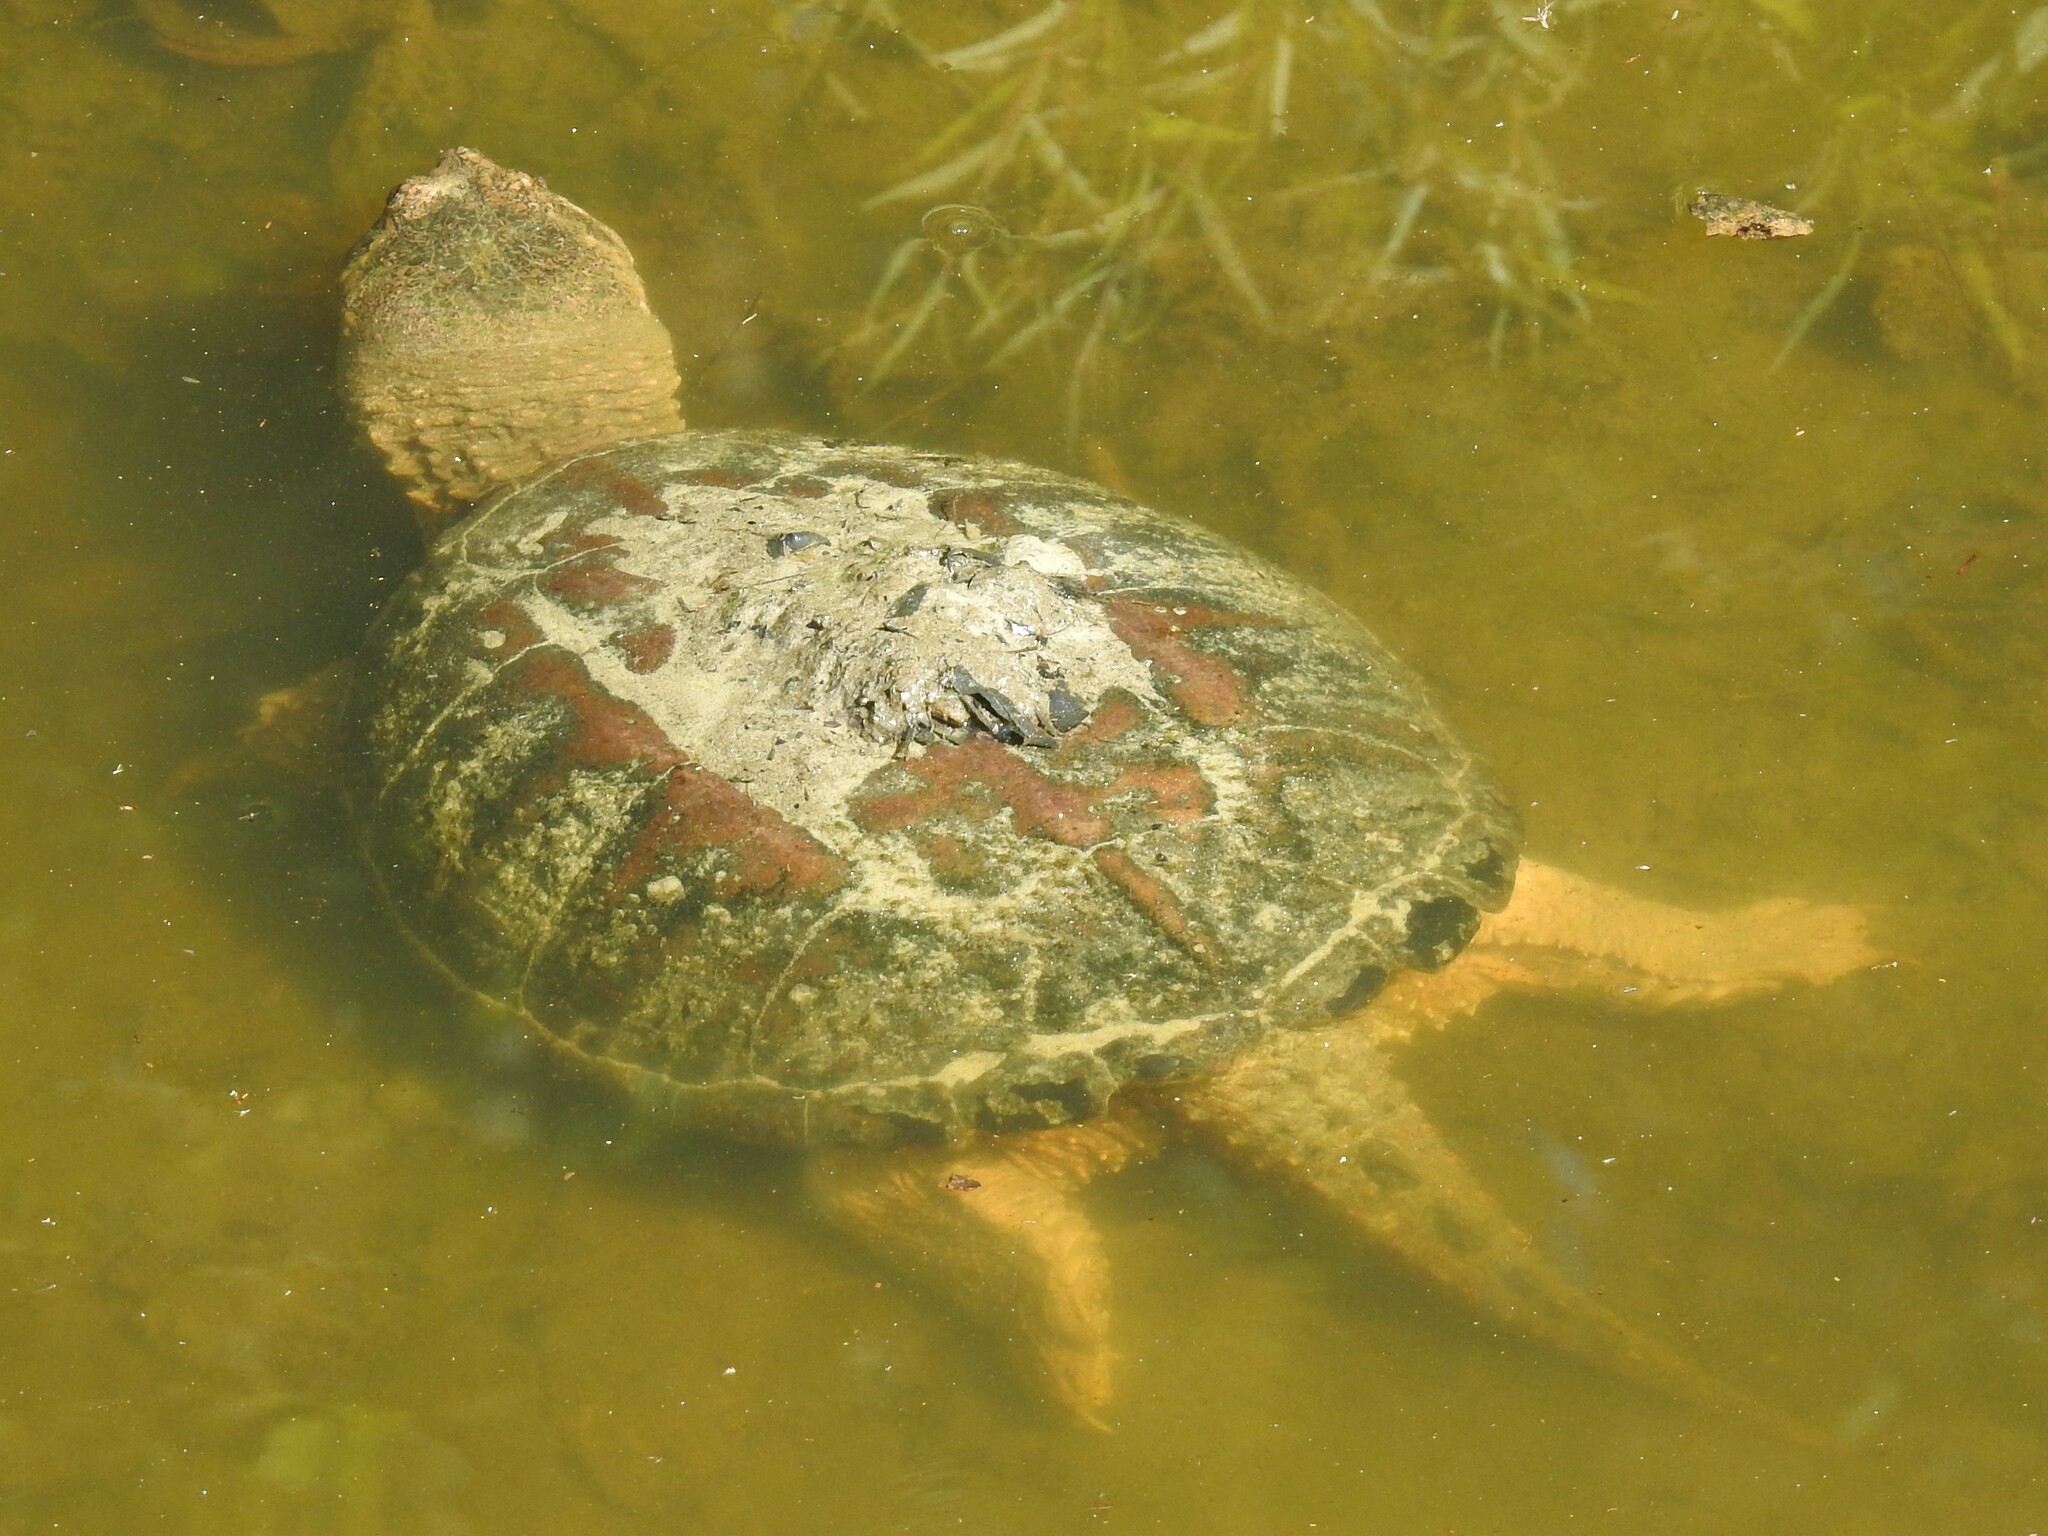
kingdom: Animalia
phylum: Chordata
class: Testudines
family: Chelydridae
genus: Chelydra
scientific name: Chelydra serpentina
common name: Common snapping turtle
